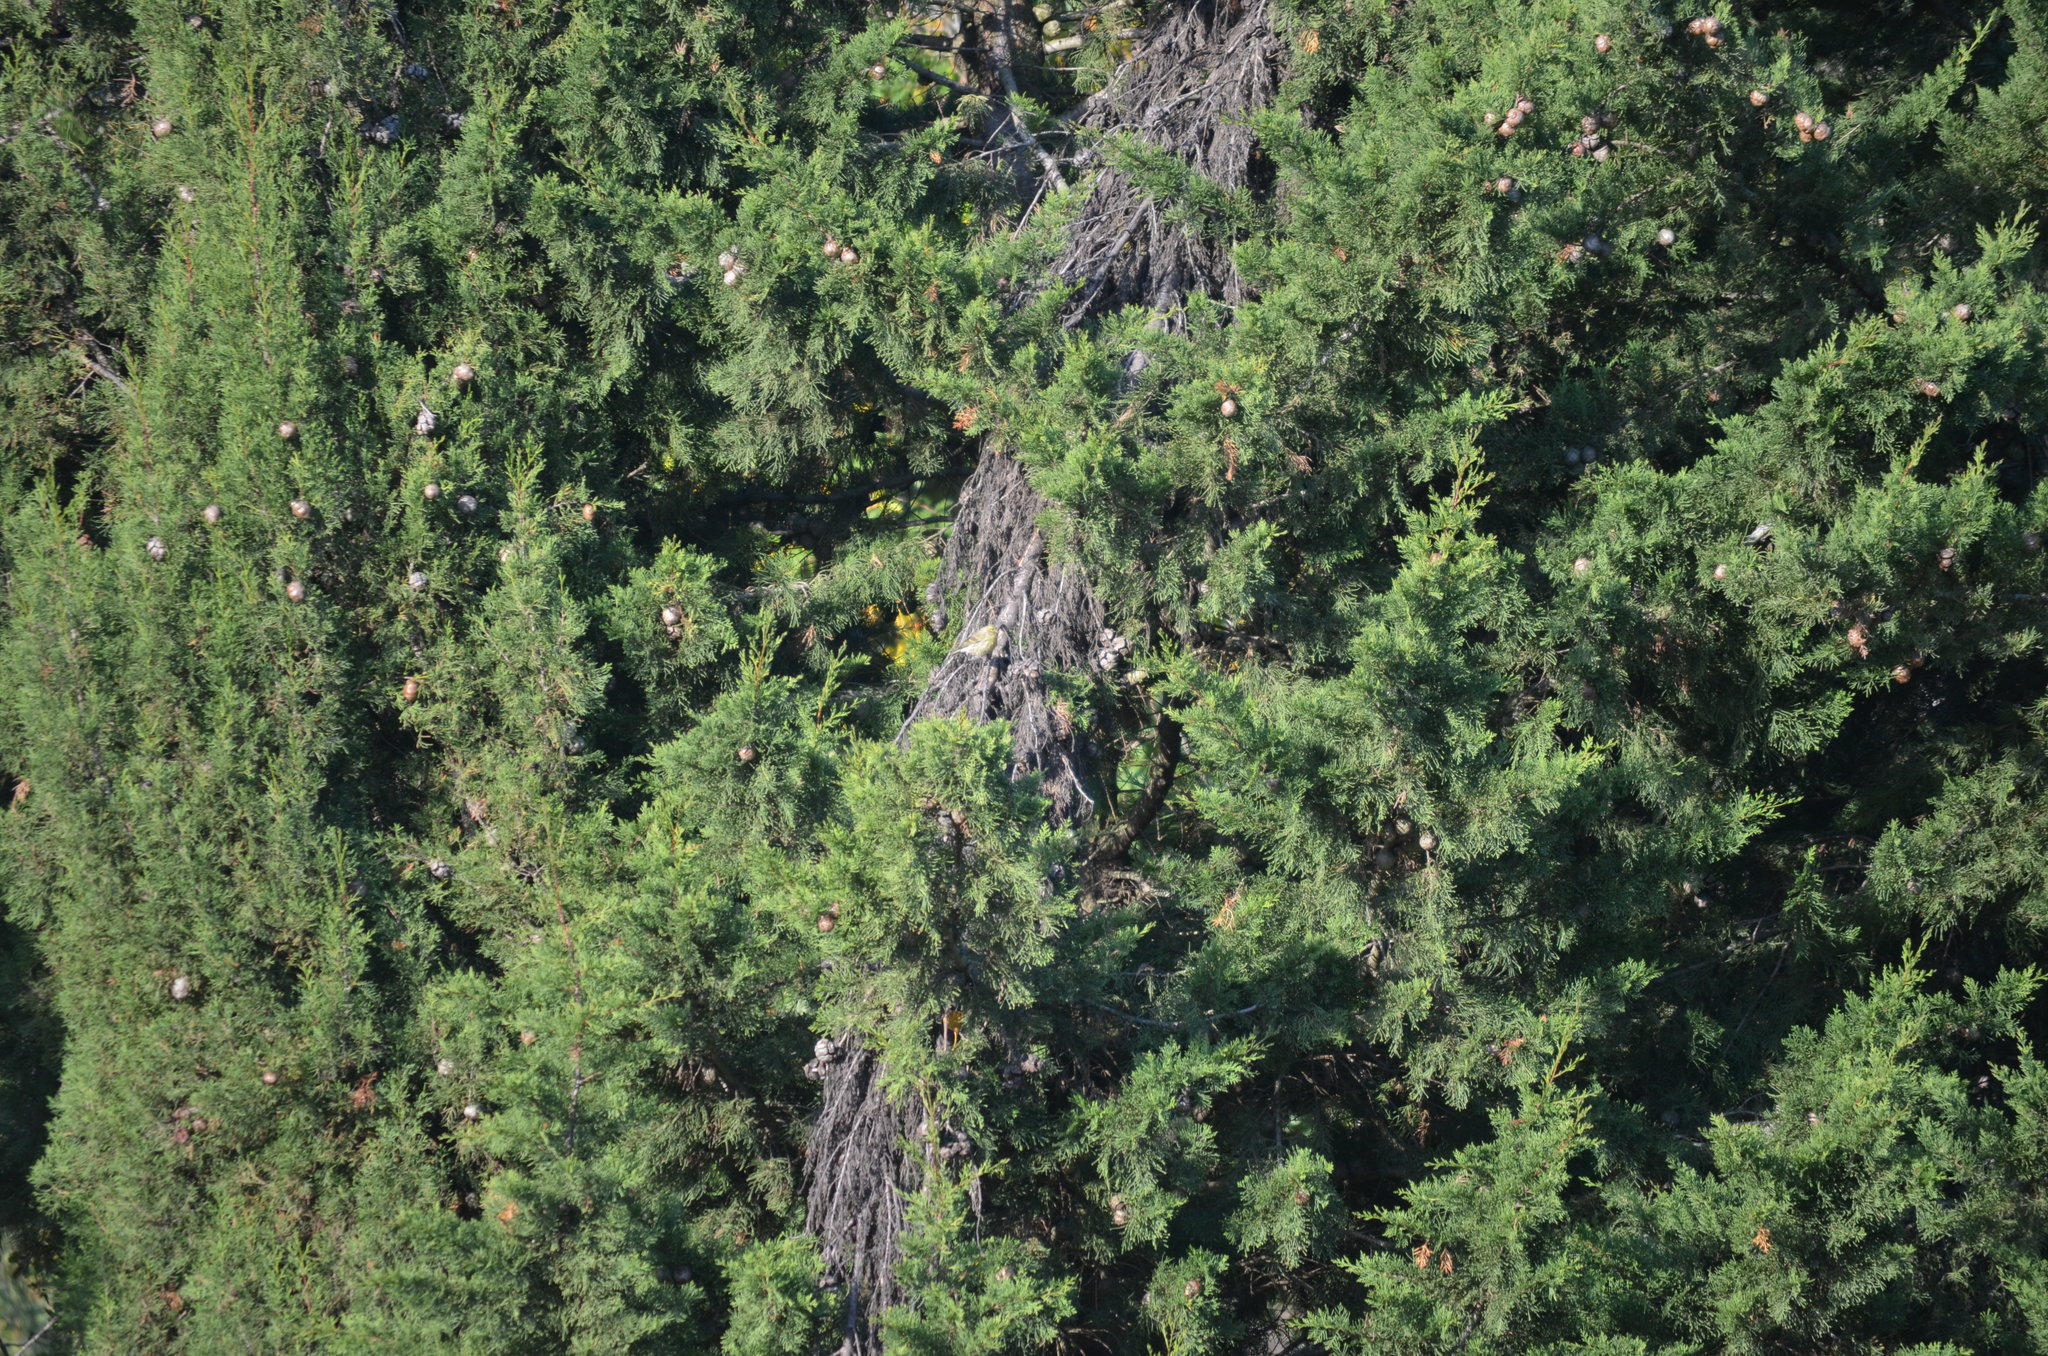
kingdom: Animalia
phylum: Chordata
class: Aves
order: Passeriformes
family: Fringillidae
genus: Serinus
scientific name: Serinus serinus
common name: European serin
